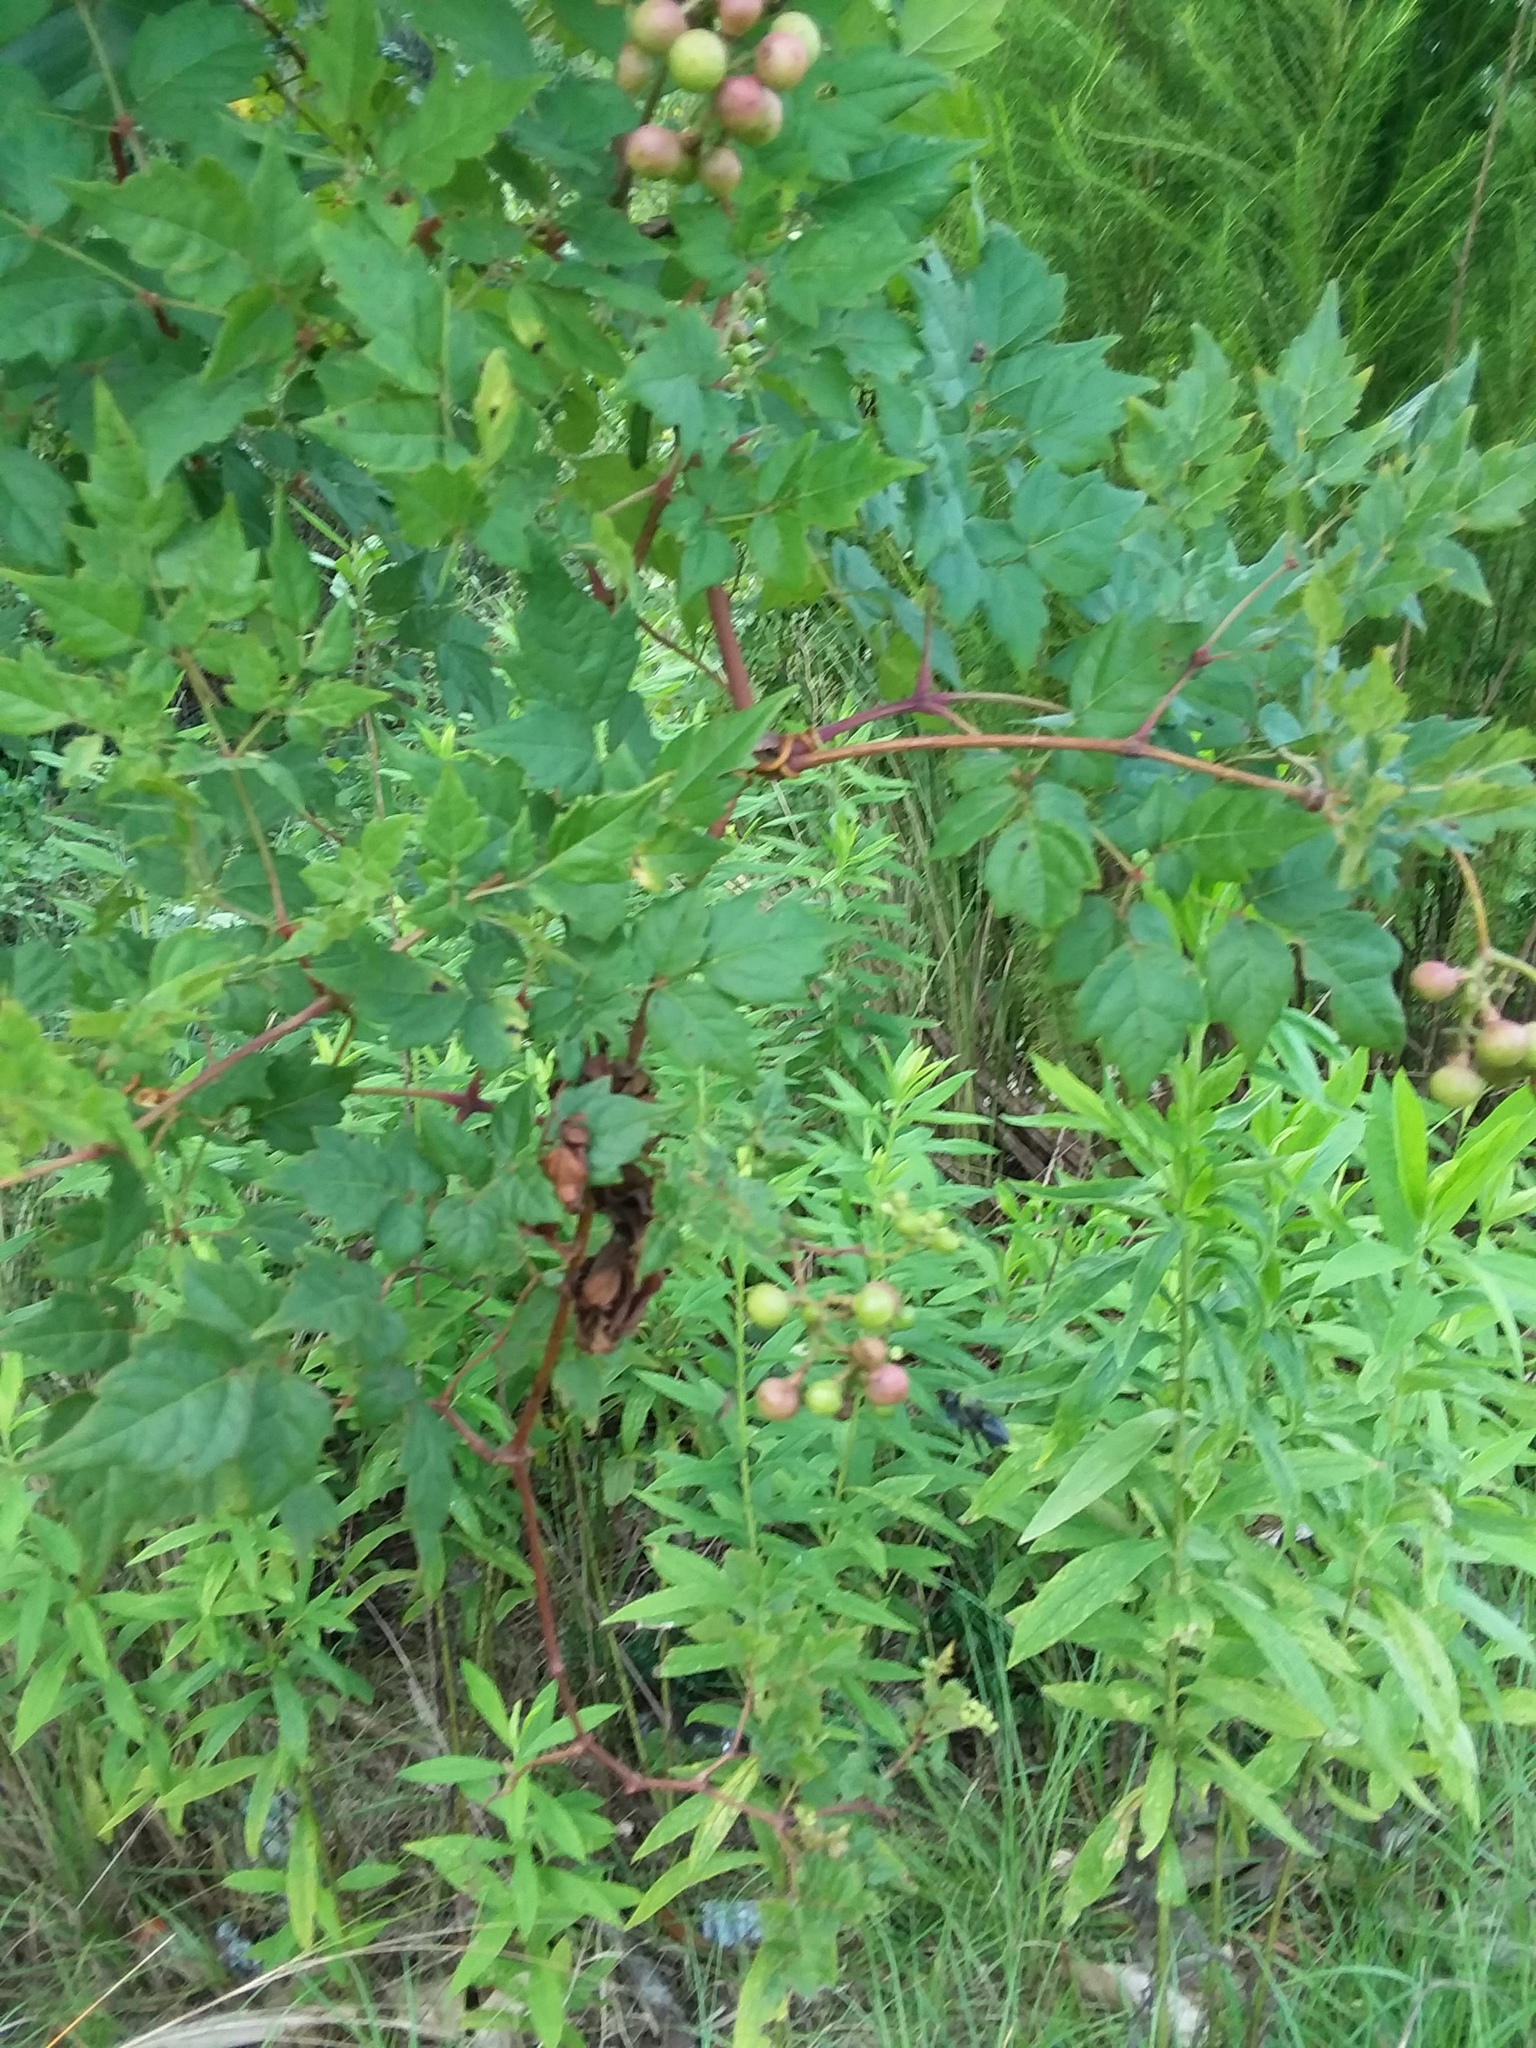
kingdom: Plantae
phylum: Tracheophyta
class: Magnoliopsida
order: Vitales
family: Vitaceae
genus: Nekemias
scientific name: Nekemias arborea
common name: Peppervine
